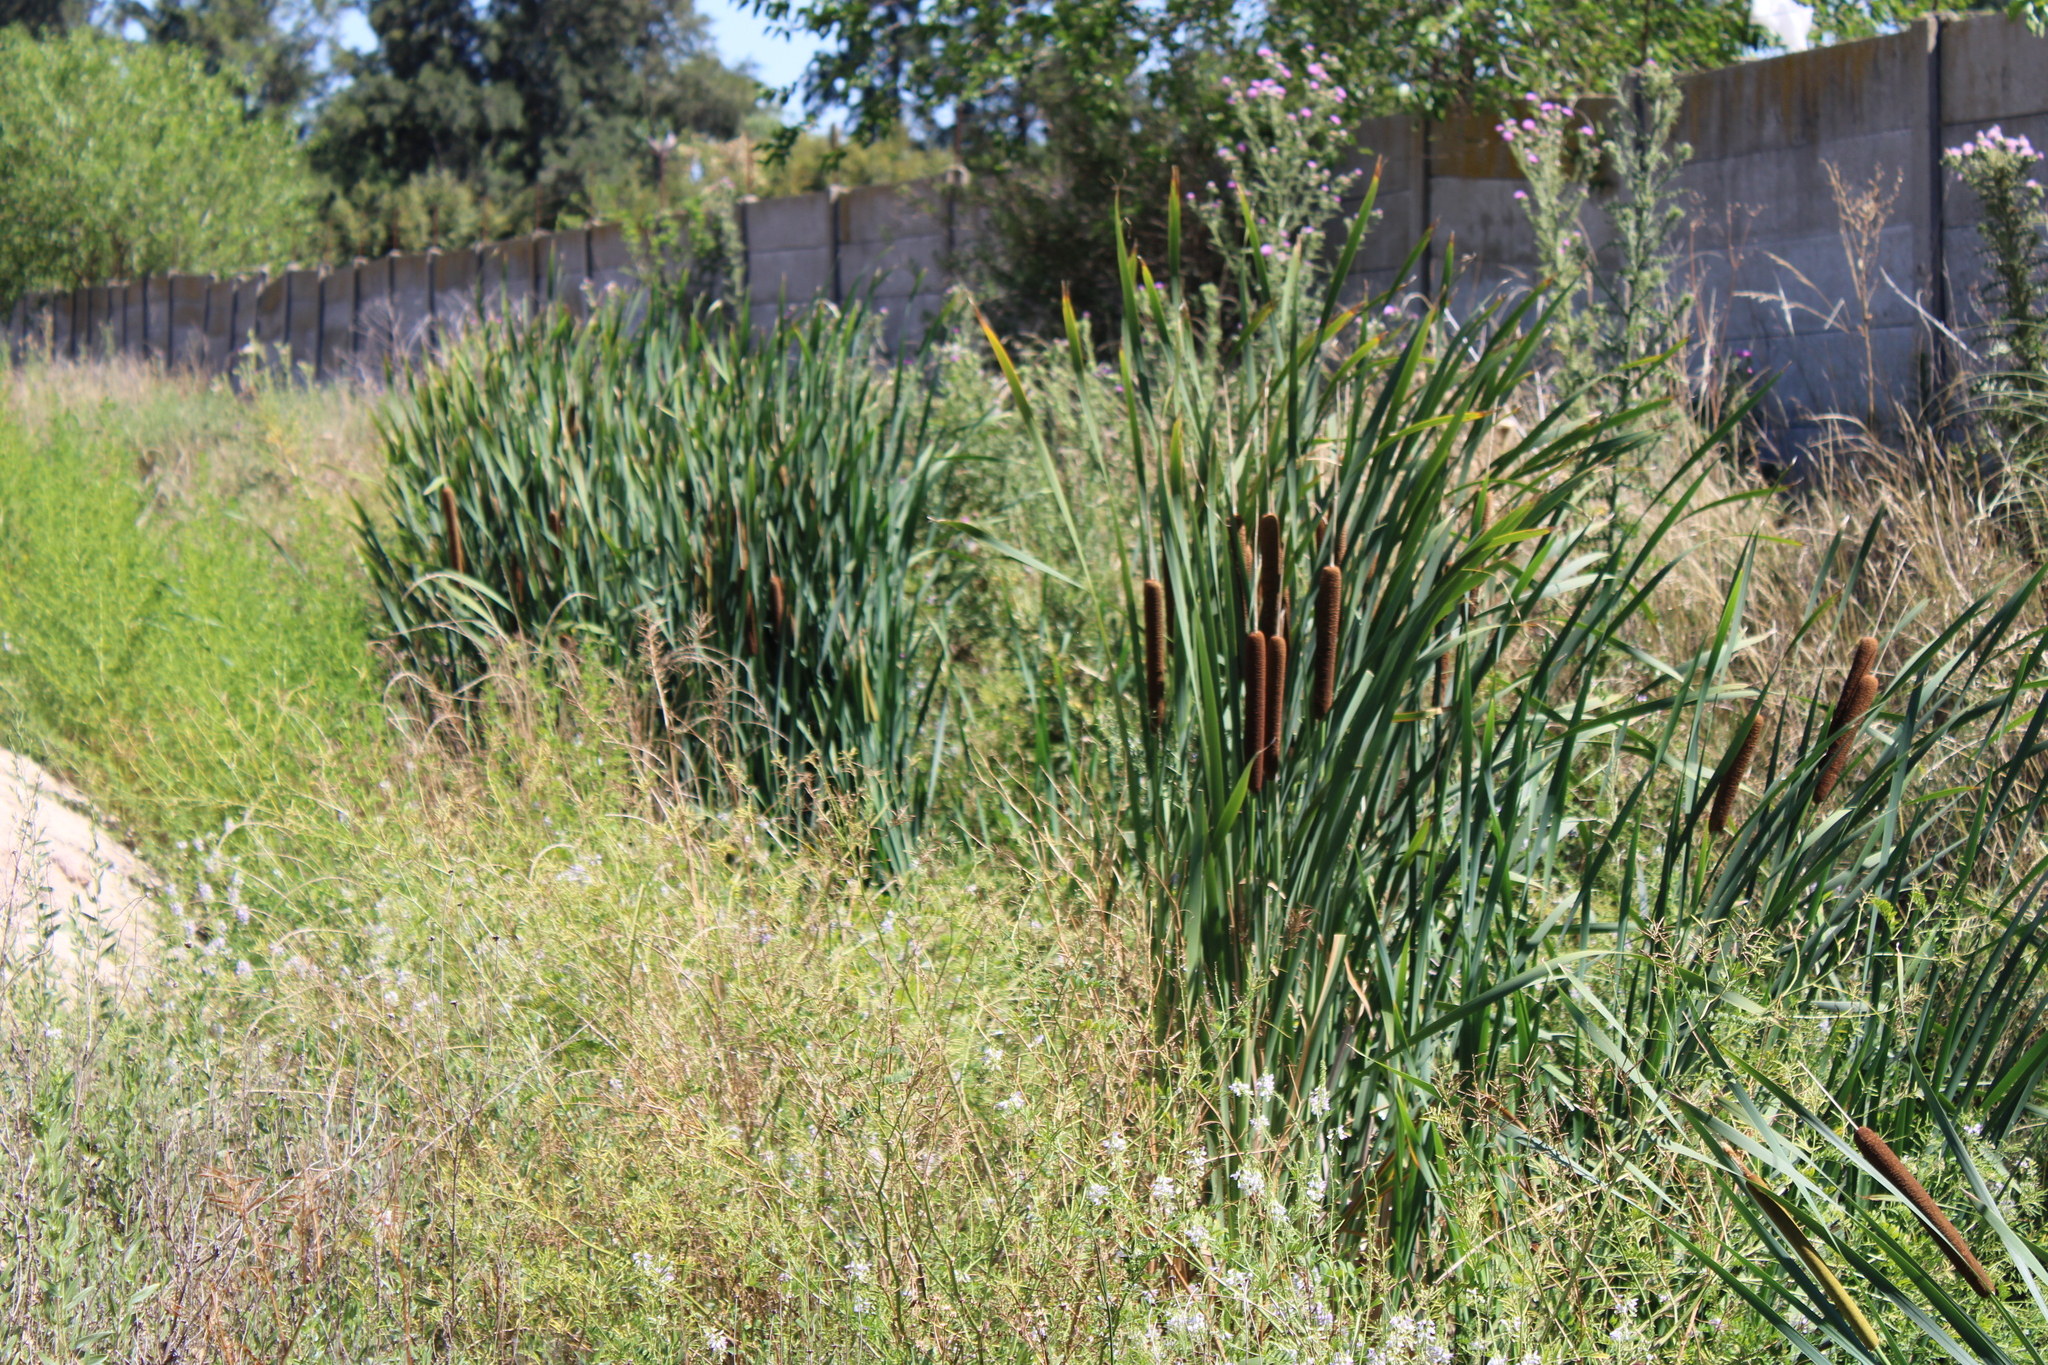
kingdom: Plantae
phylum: Tracheophyta
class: Liliopsida
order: Poales
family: Typhaceae
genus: Typha
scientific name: Typha domingensis
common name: Southern cattail
